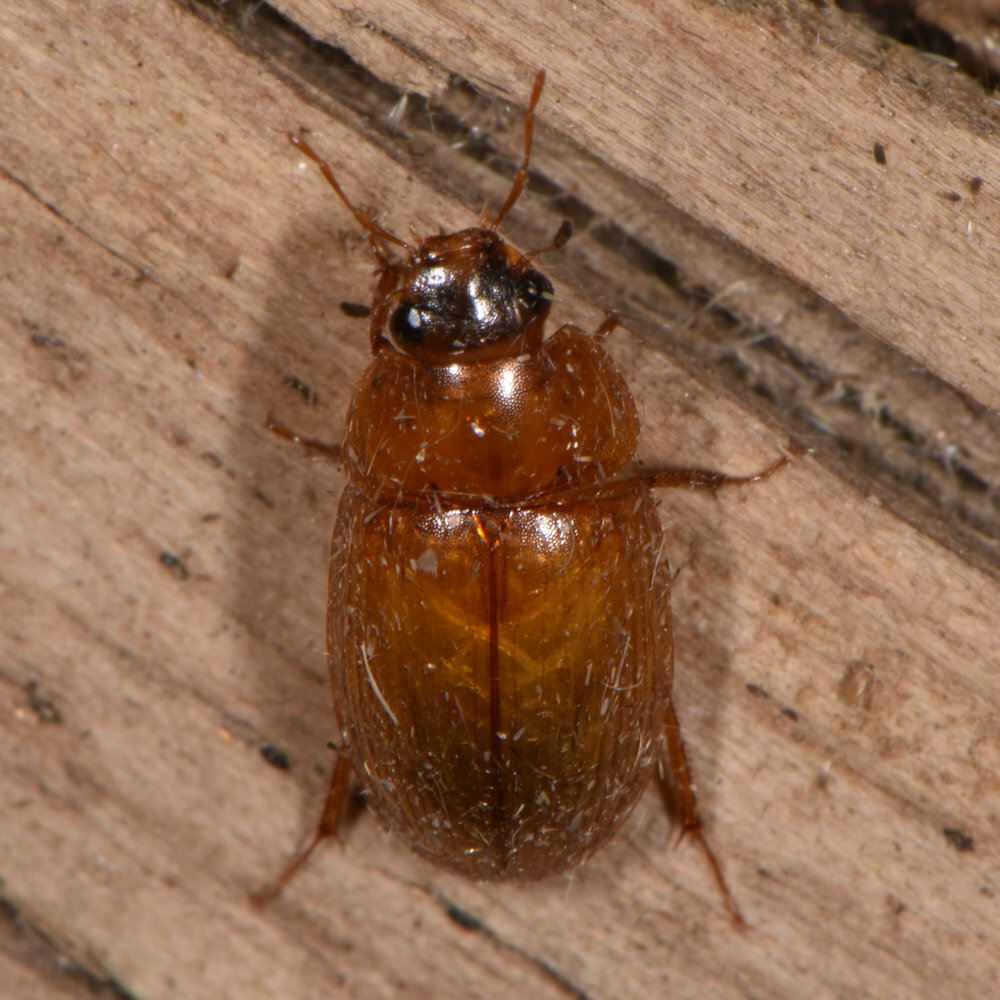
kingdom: Animalia
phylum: Arthropoda
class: Insecta
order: Coleoptera
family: Hydrophilidae
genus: Cymbiodyta
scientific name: Cymbiodyta bifida
